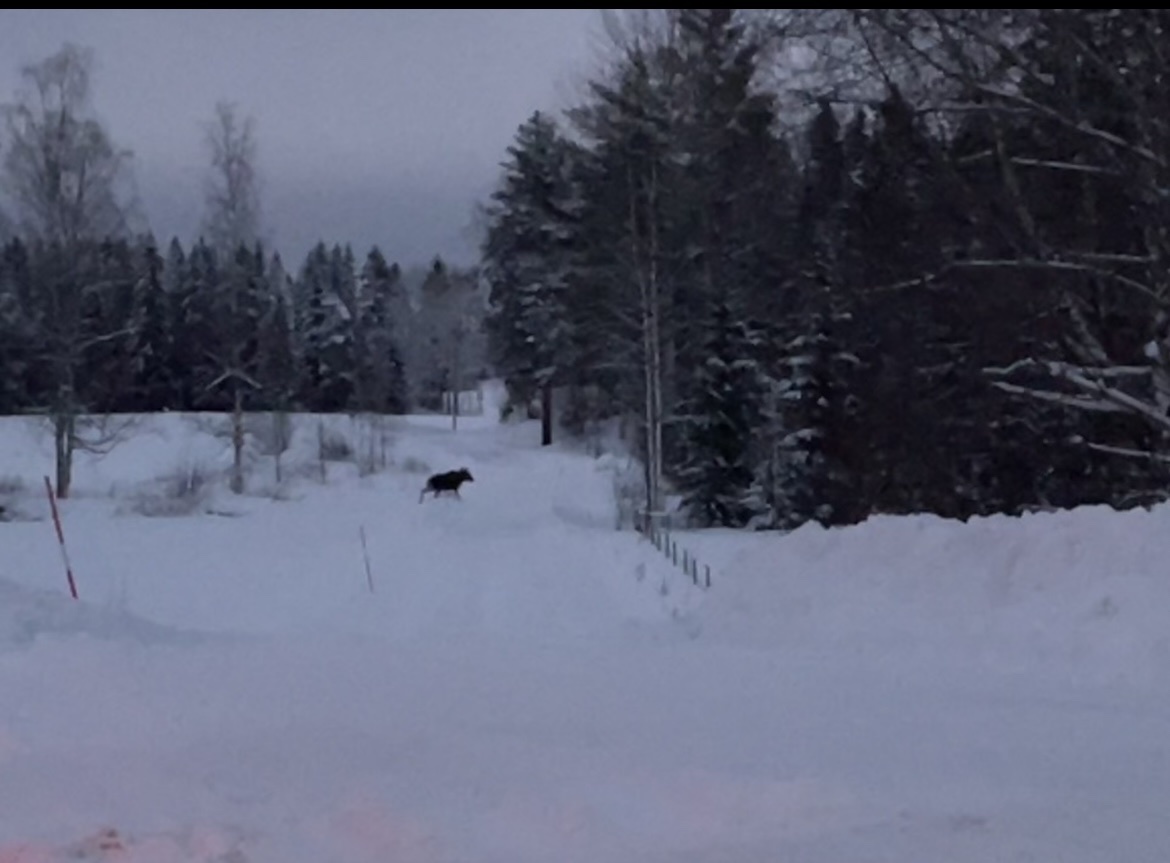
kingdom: Animalia
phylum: Chordata
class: Mammalia
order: Artiodactyla
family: Cervidae
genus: Alces
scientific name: Alces alces
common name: Moose
